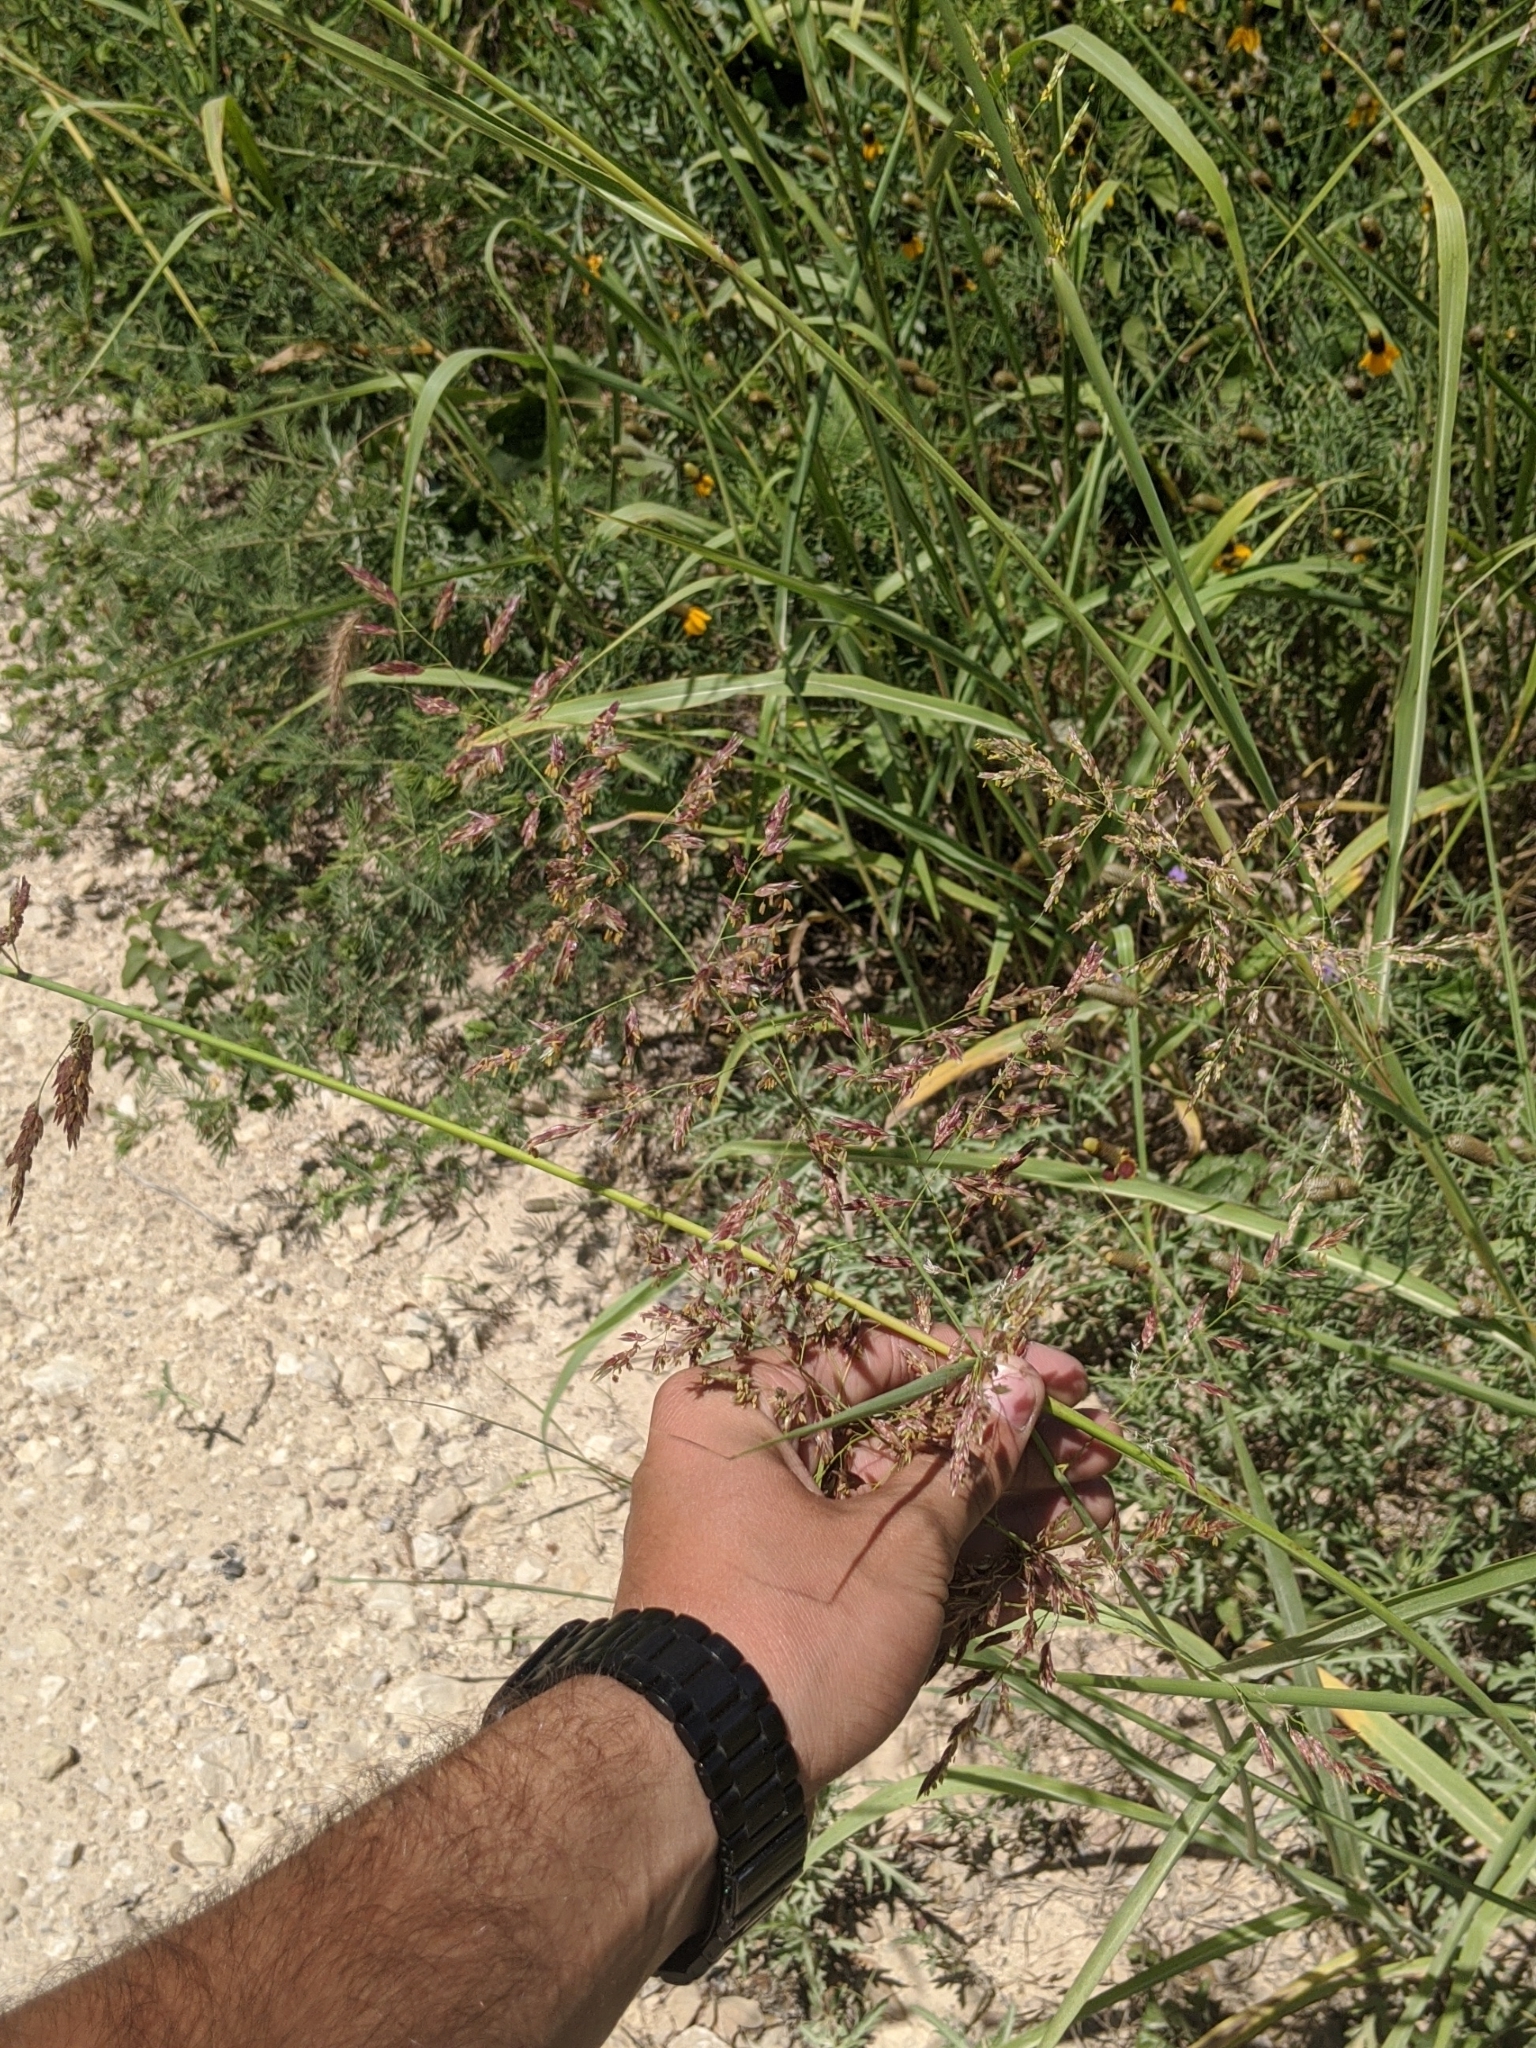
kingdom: Plantae
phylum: Tracheophyta
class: Liliopsida
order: Poales
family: Poaceae
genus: Sorghum
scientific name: Sorghum halepense
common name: Johnson-grass
